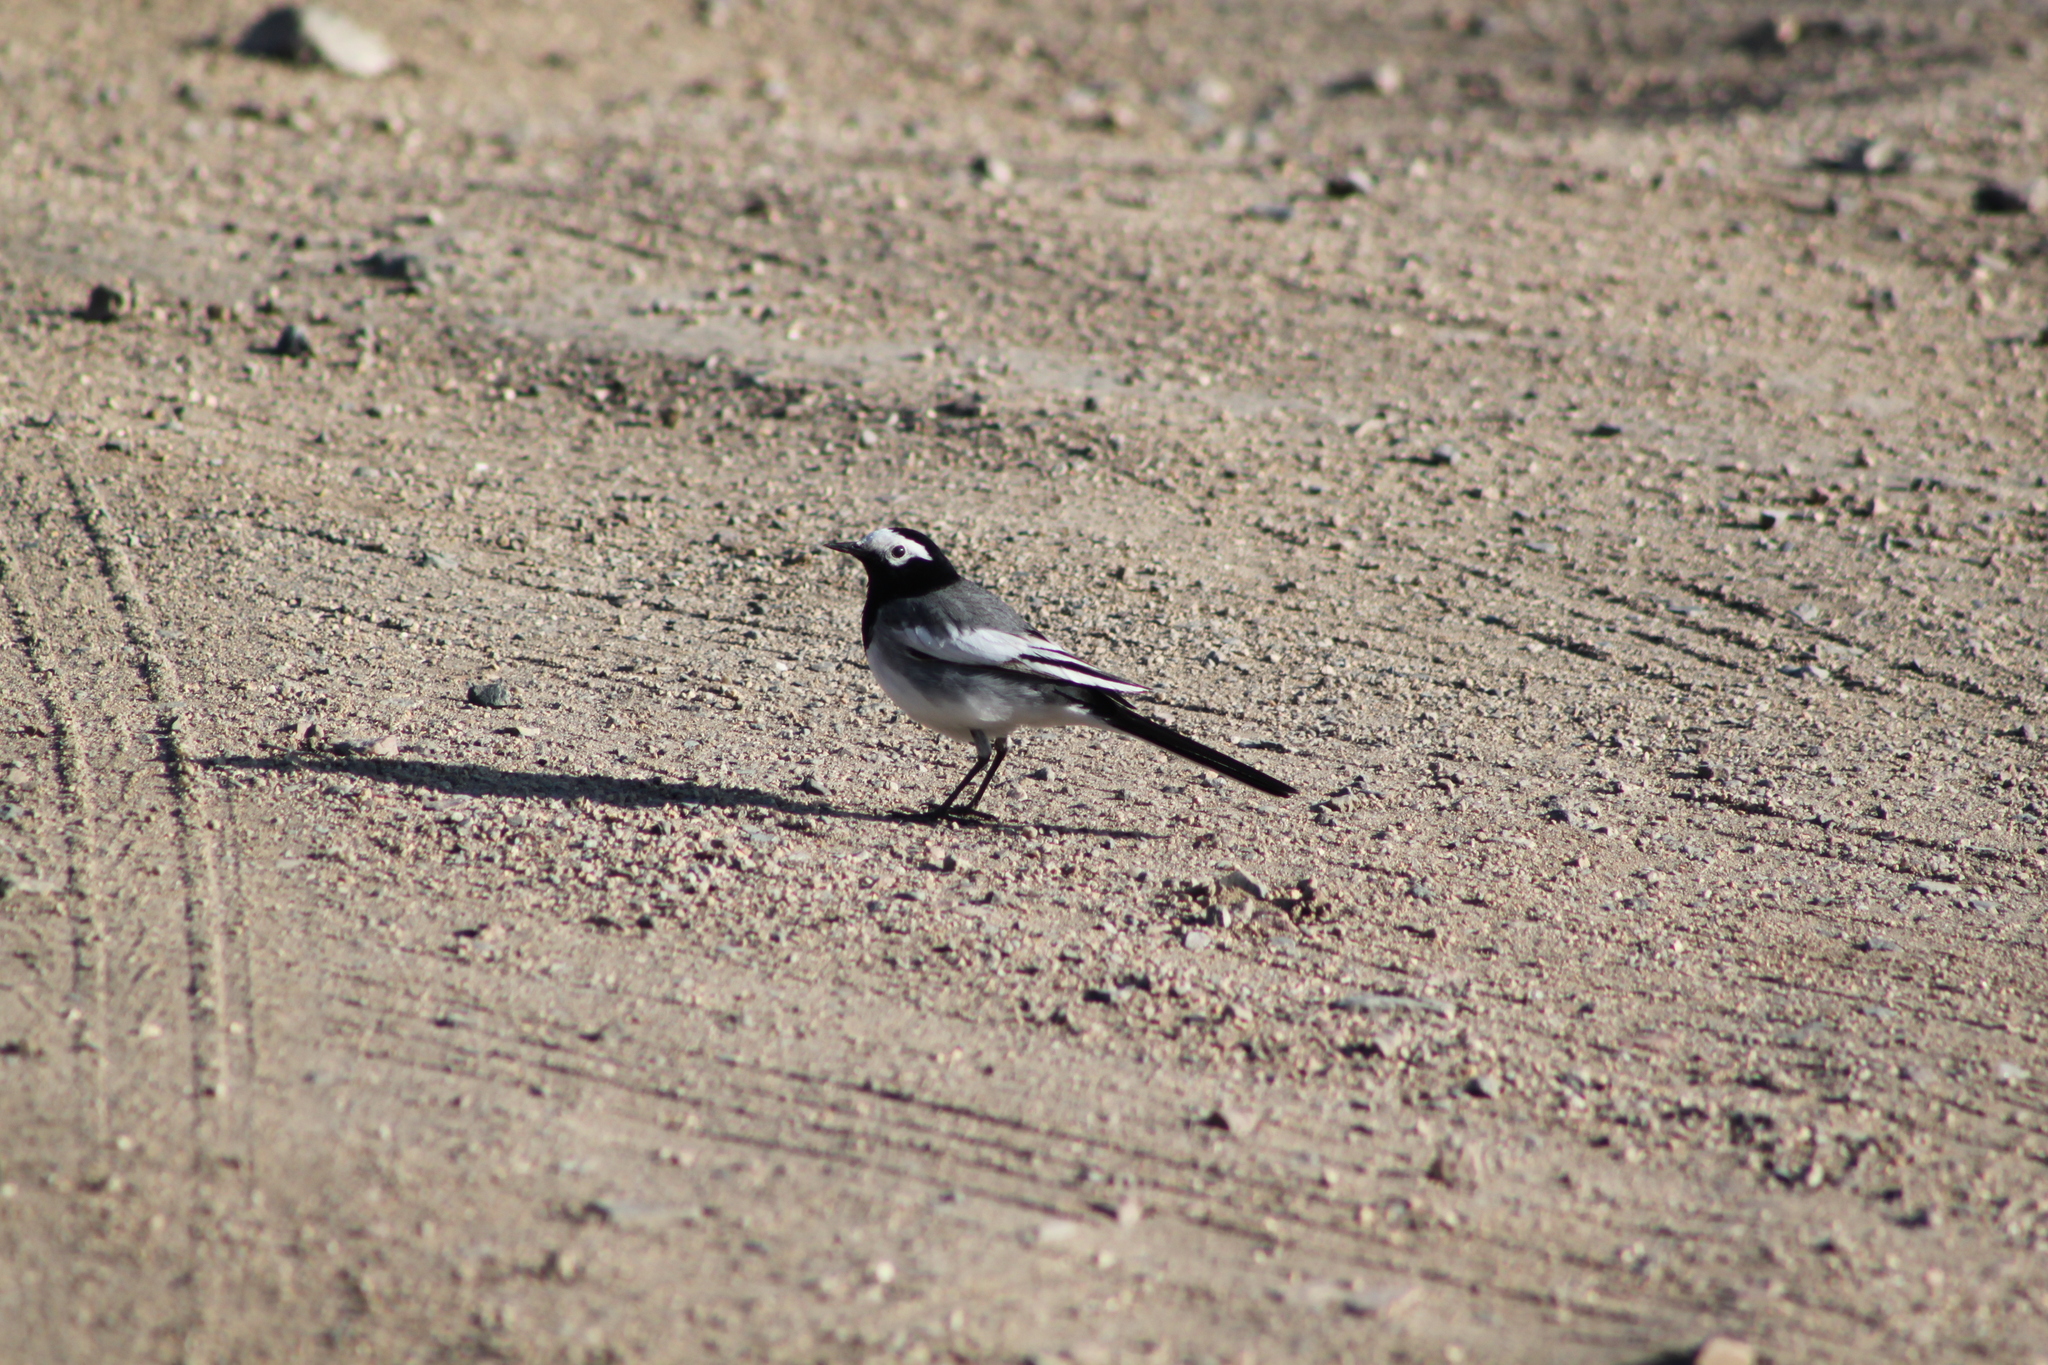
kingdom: Animalia
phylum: Chordata
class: Aves
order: Passeriformes
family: Motacillidae
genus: Motacilla
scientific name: Motacilla alba
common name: White wagtail
